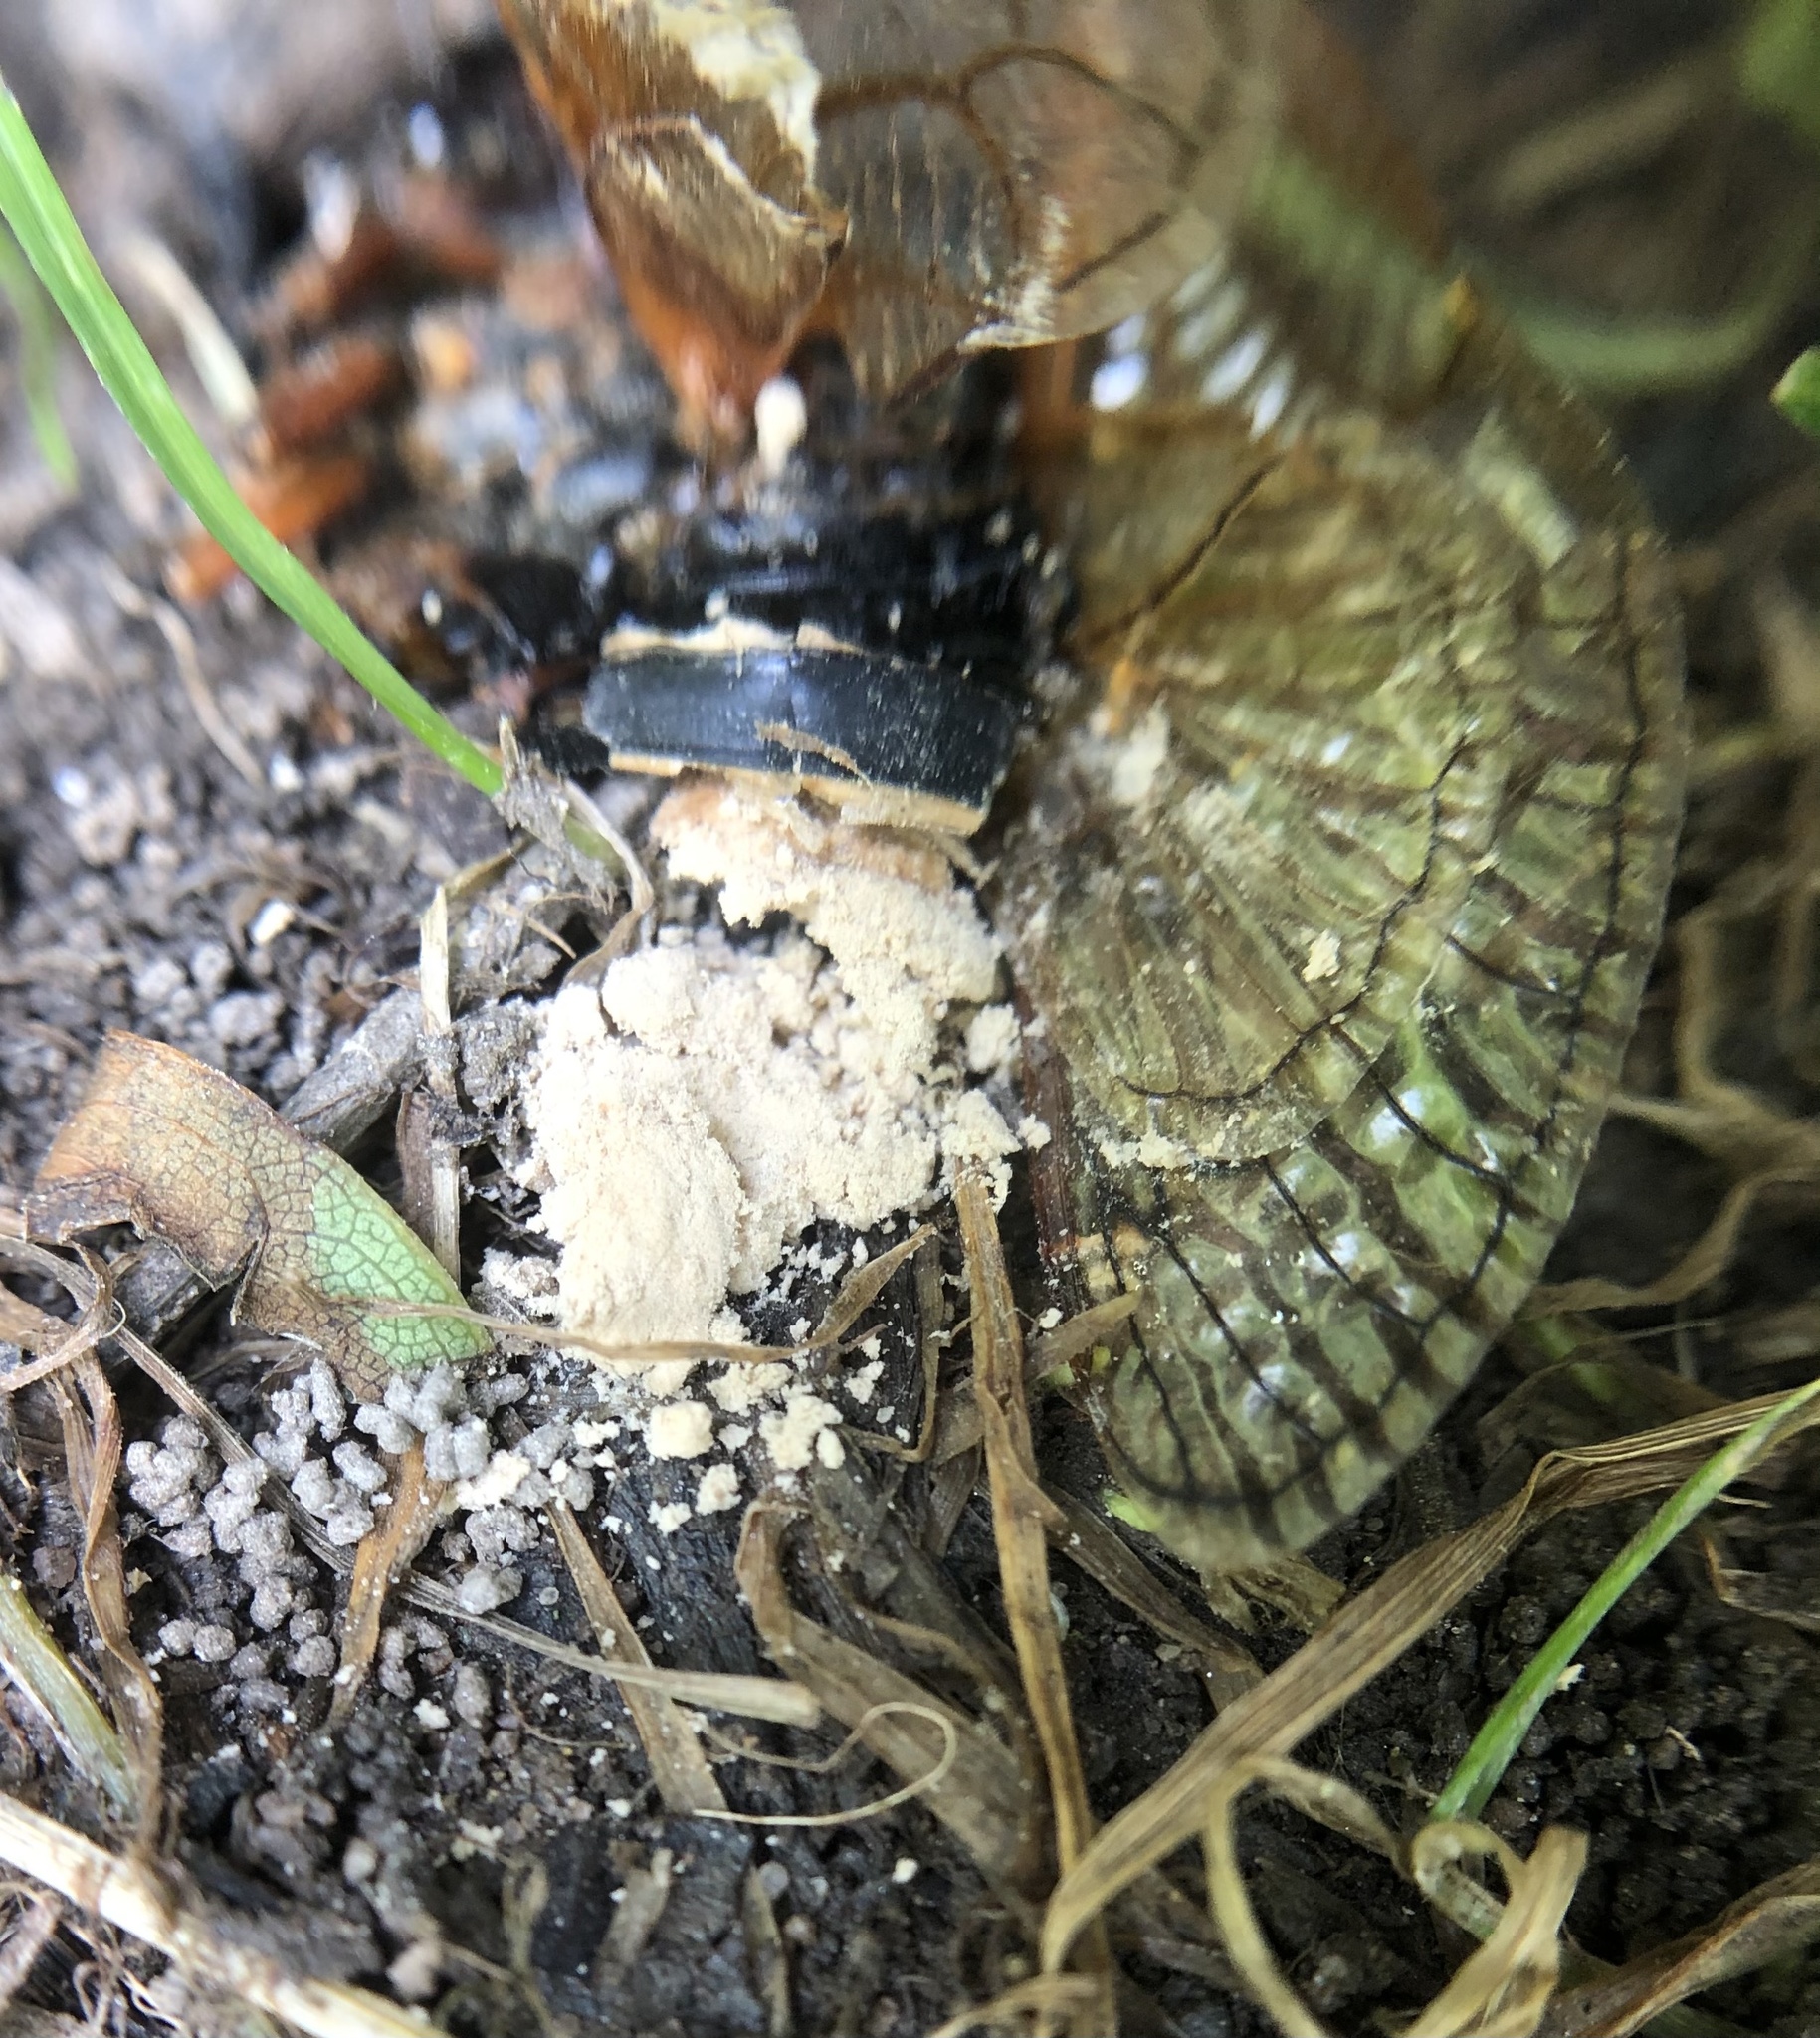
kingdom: Fungi
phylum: Entomophthoromycota
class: Entomophthoromycetes
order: Entomophthorales
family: Entomophthoraceae
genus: Massospora
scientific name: Massospora cicadina
